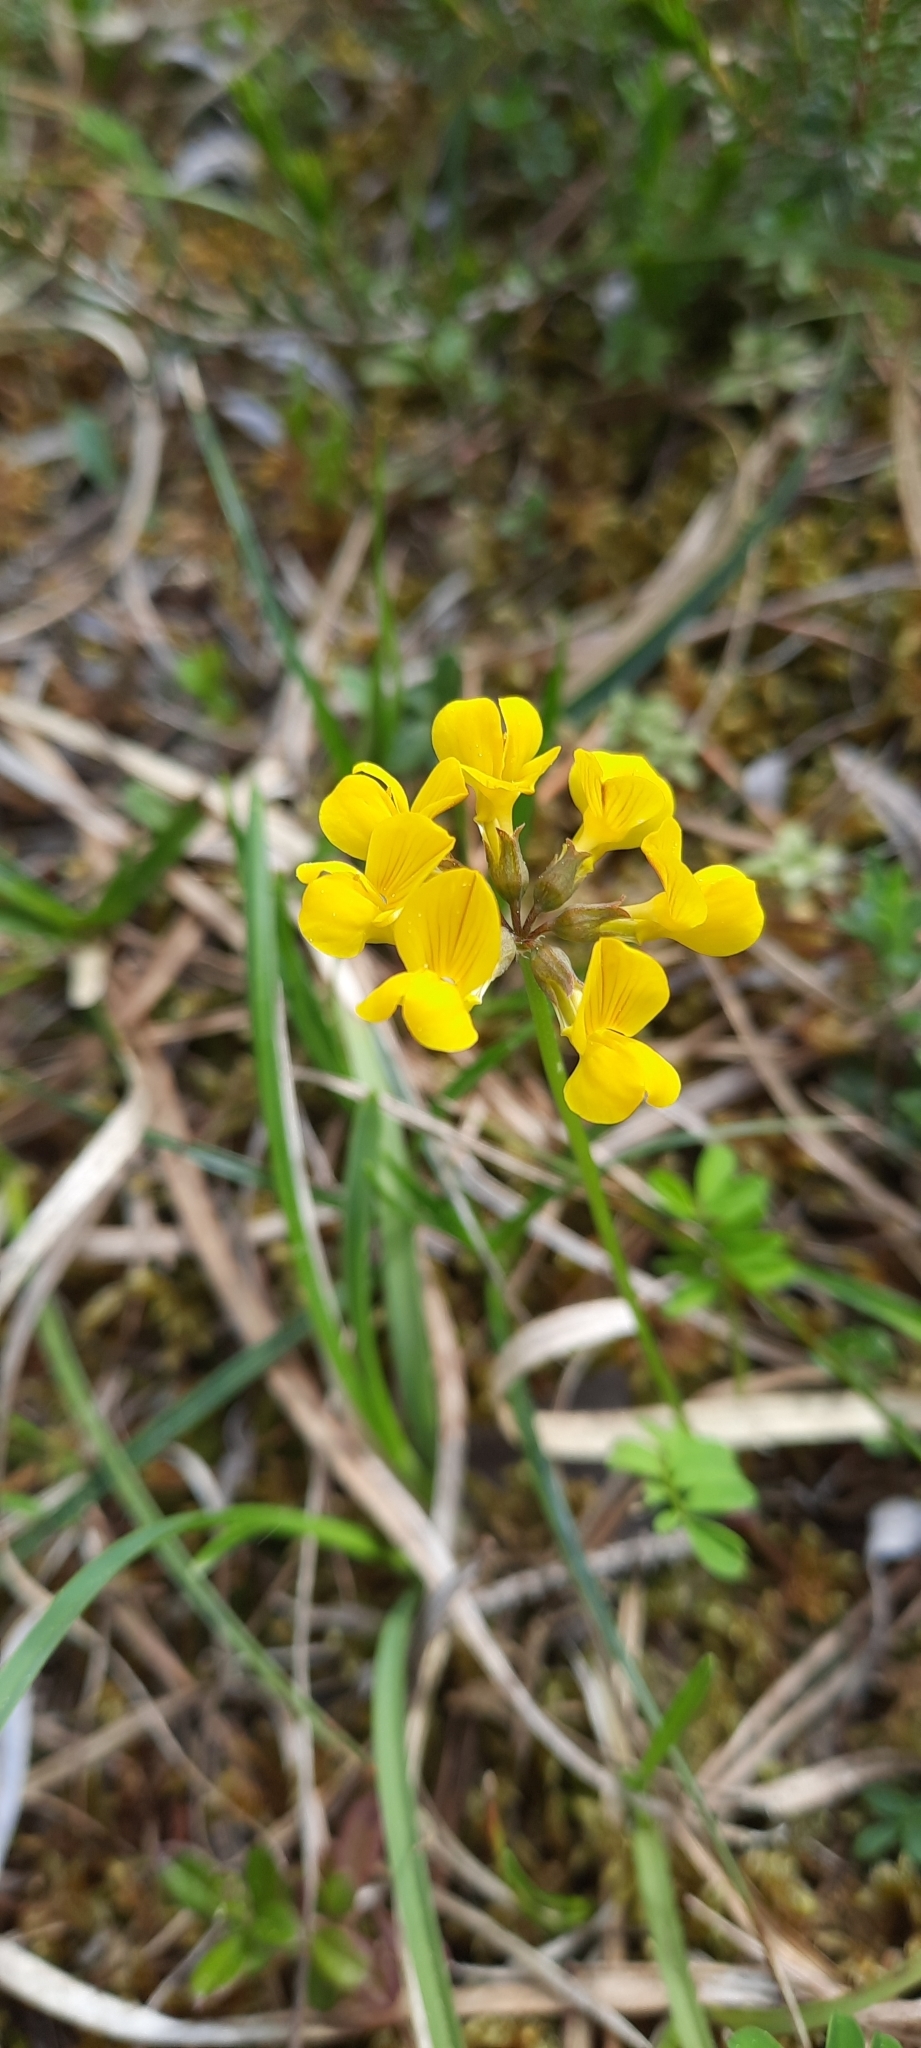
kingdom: Plantae
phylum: Tracheophyta
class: Magnoliopsida
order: Fabales
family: Fabaceae
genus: Hippocrepis
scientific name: Hippocrepis comosa
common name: Horseshoe vetch
